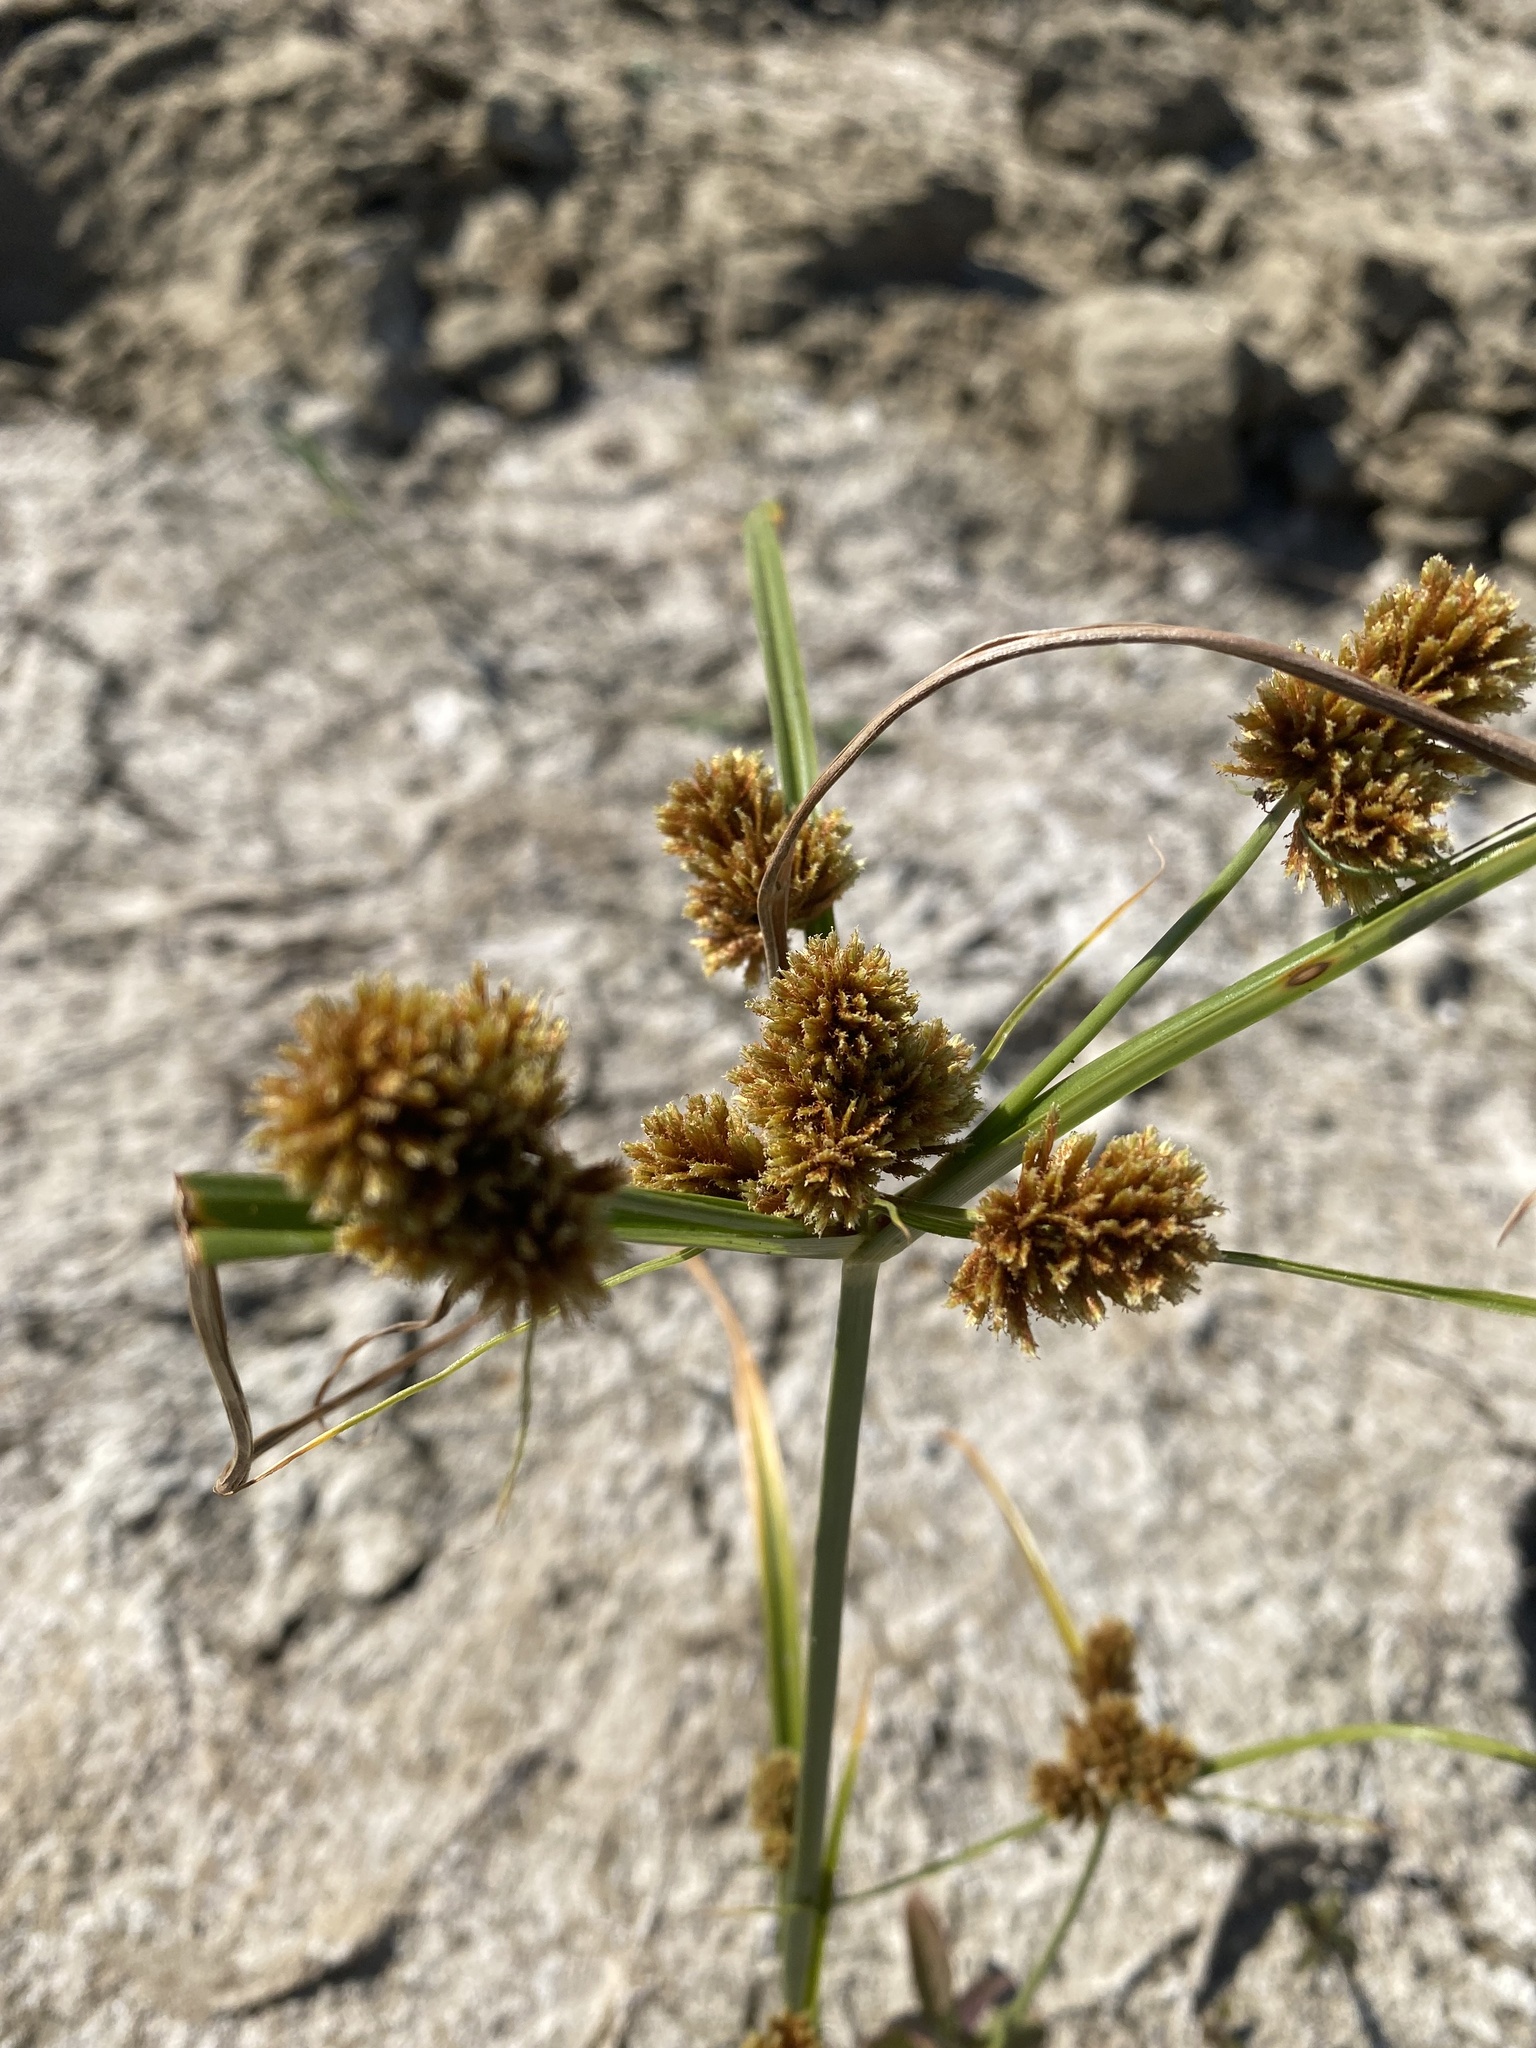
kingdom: Plantae
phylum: Tracheophyta
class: Liliopsida
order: Poales
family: Cyperaceae
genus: Cyperus
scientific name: Cyperus glomeratus
